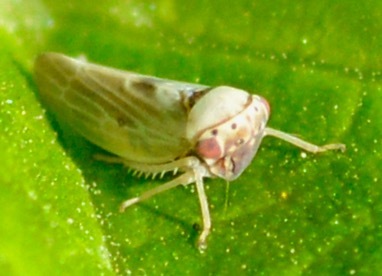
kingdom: Animalia
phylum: Arthropoda
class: Insecta
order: Hemiptera
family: Cicadellidae
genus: Agalliopsis
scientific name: Agalliopsis ancistra
